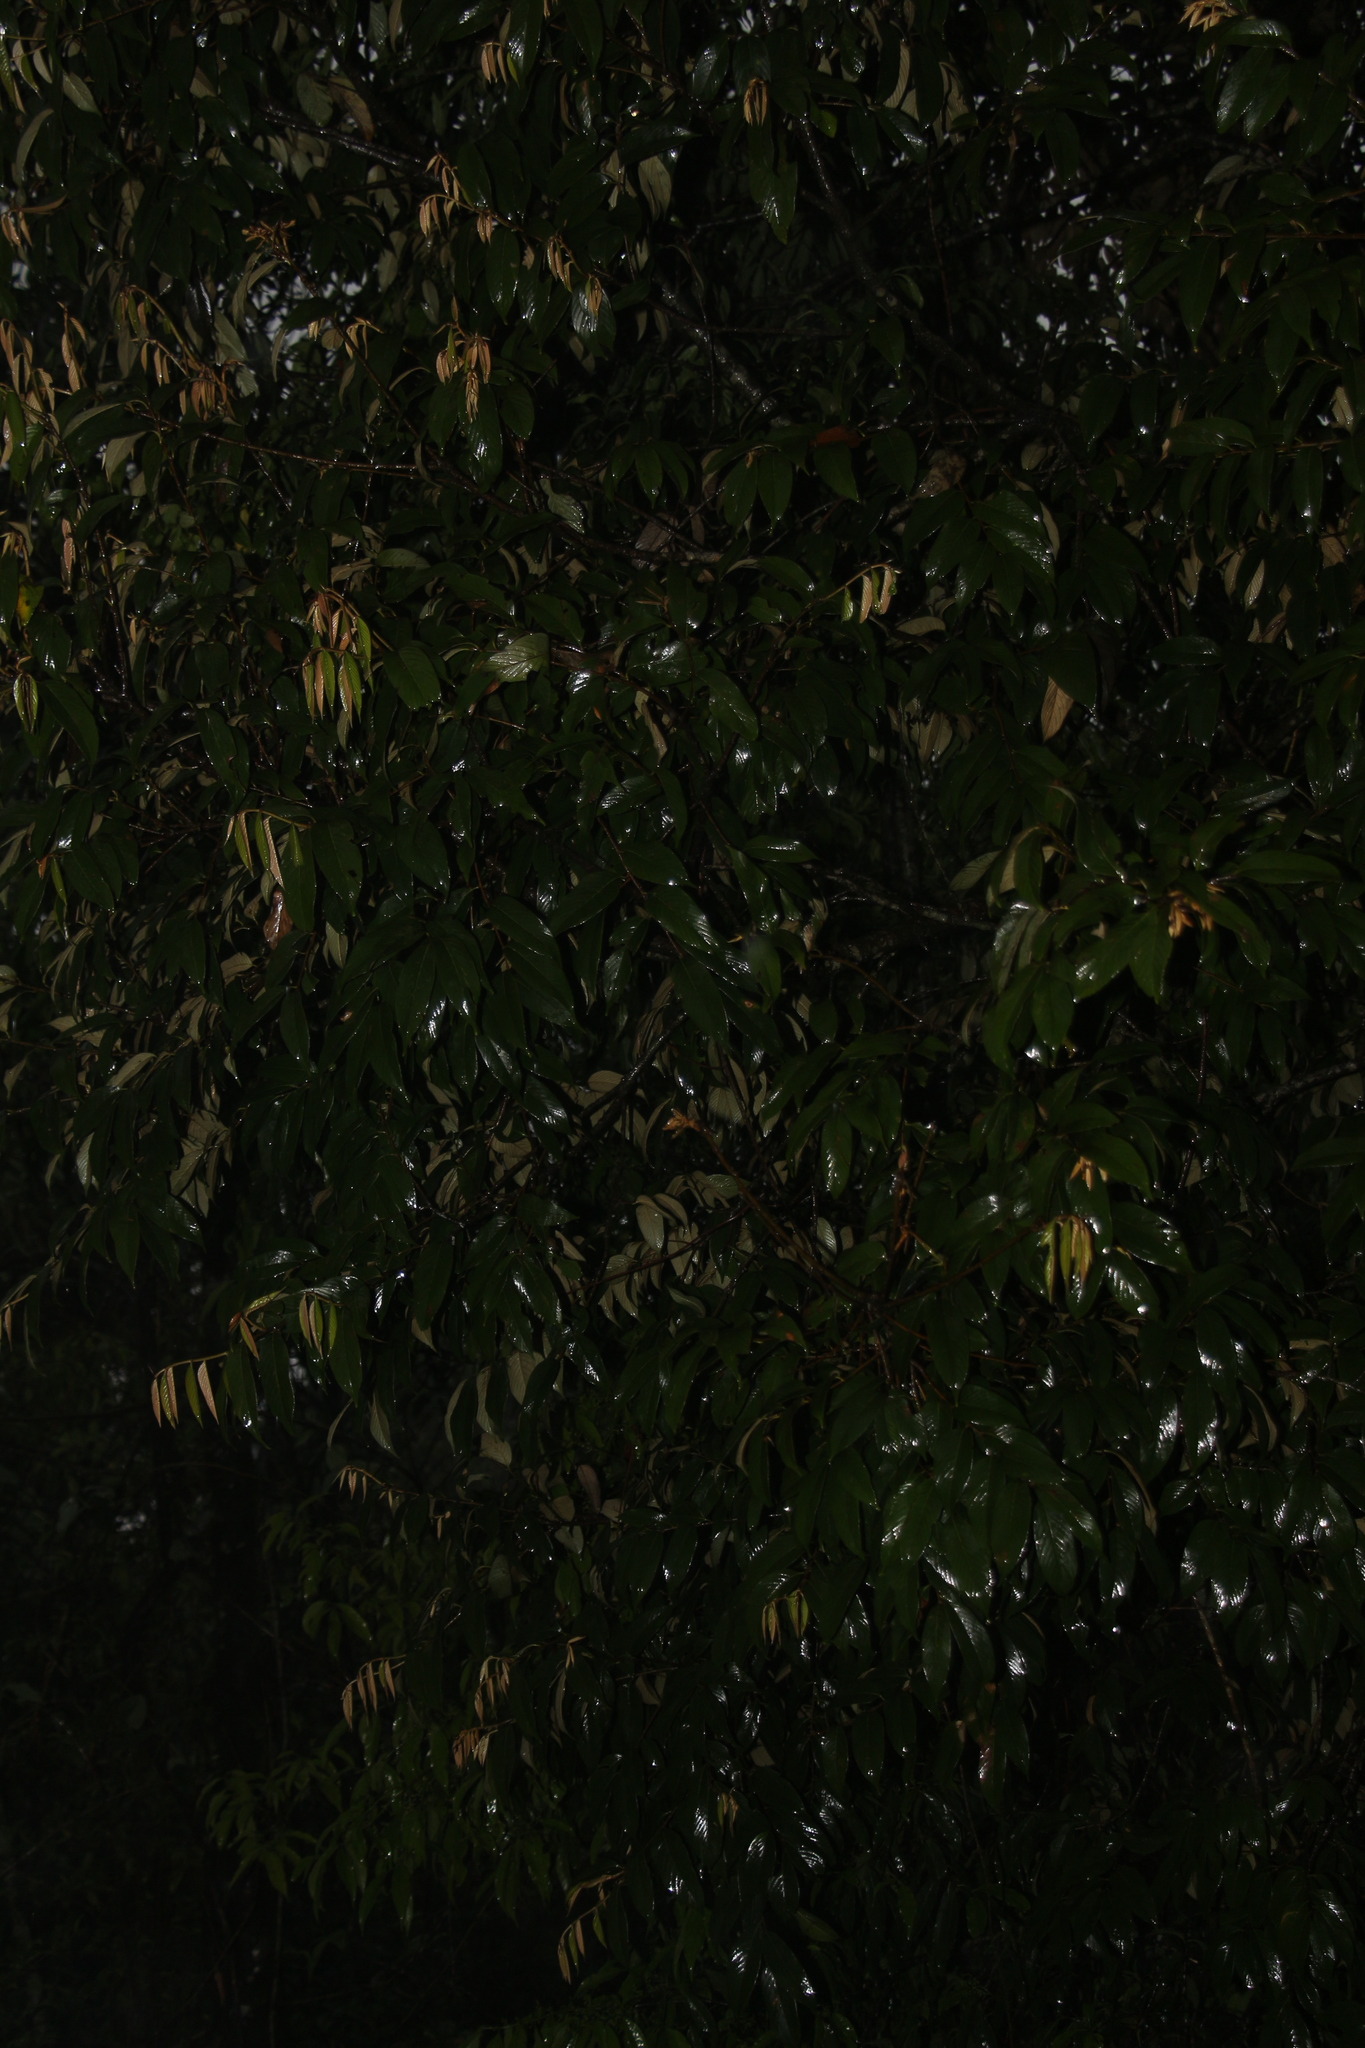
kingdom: Plantae
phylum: Tracheophyta
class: Magnoliopsida
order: Fagales
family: Fagaceae
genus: Quercus
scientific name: Quercus lamellosa
